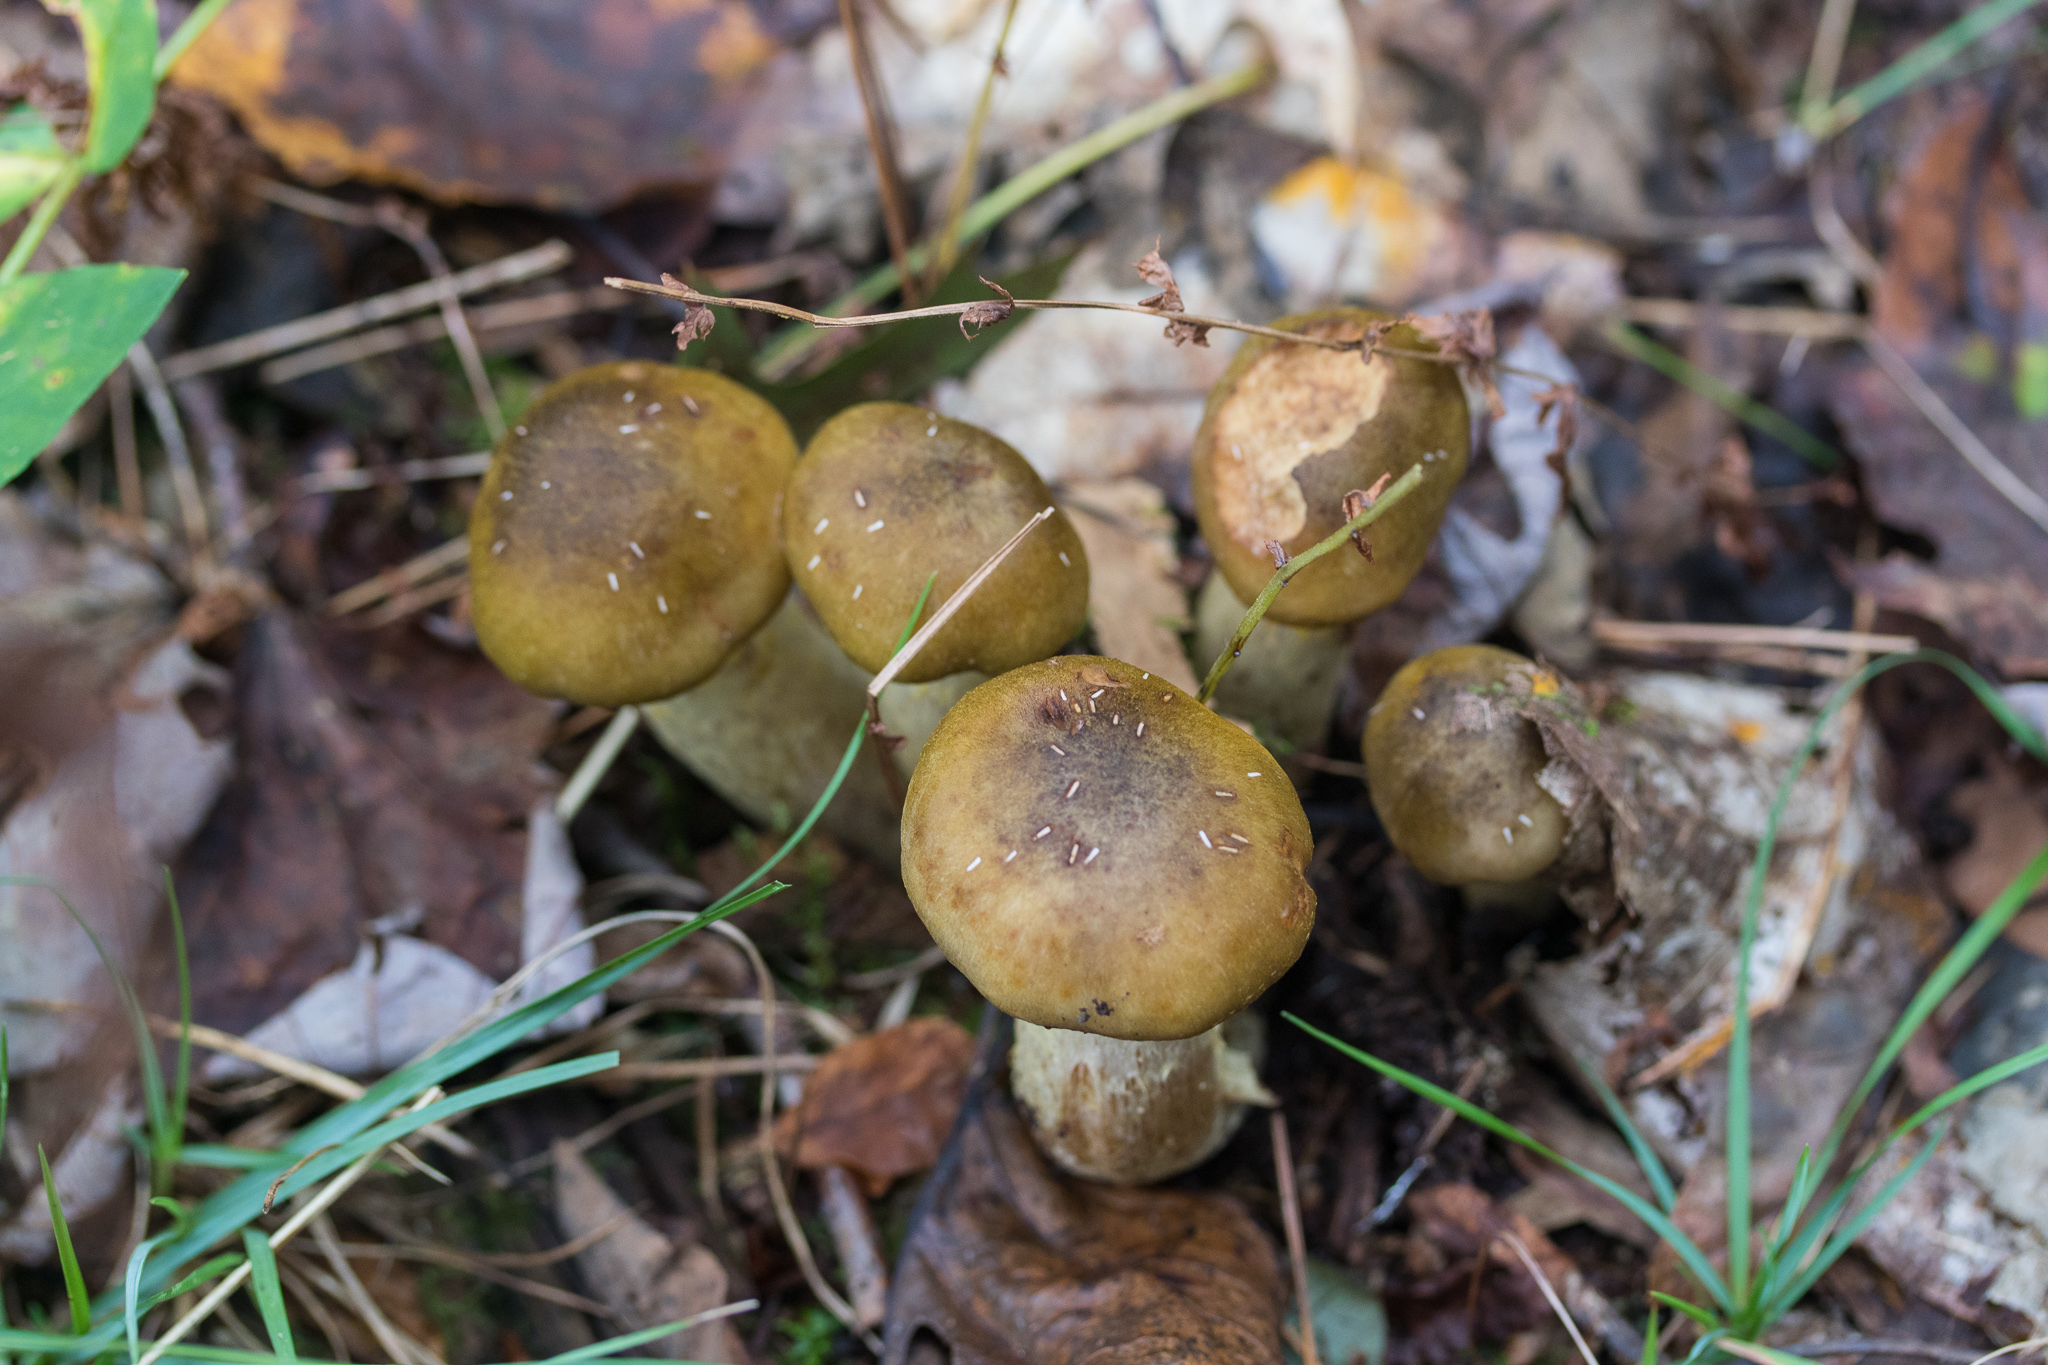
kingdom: Fungi
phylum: Basidiomycota
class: Agaricomycetes
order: Agaricales
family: Physalacriaceae
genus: Armillaria
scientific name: Armillaria mellea
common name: Honey fungus
